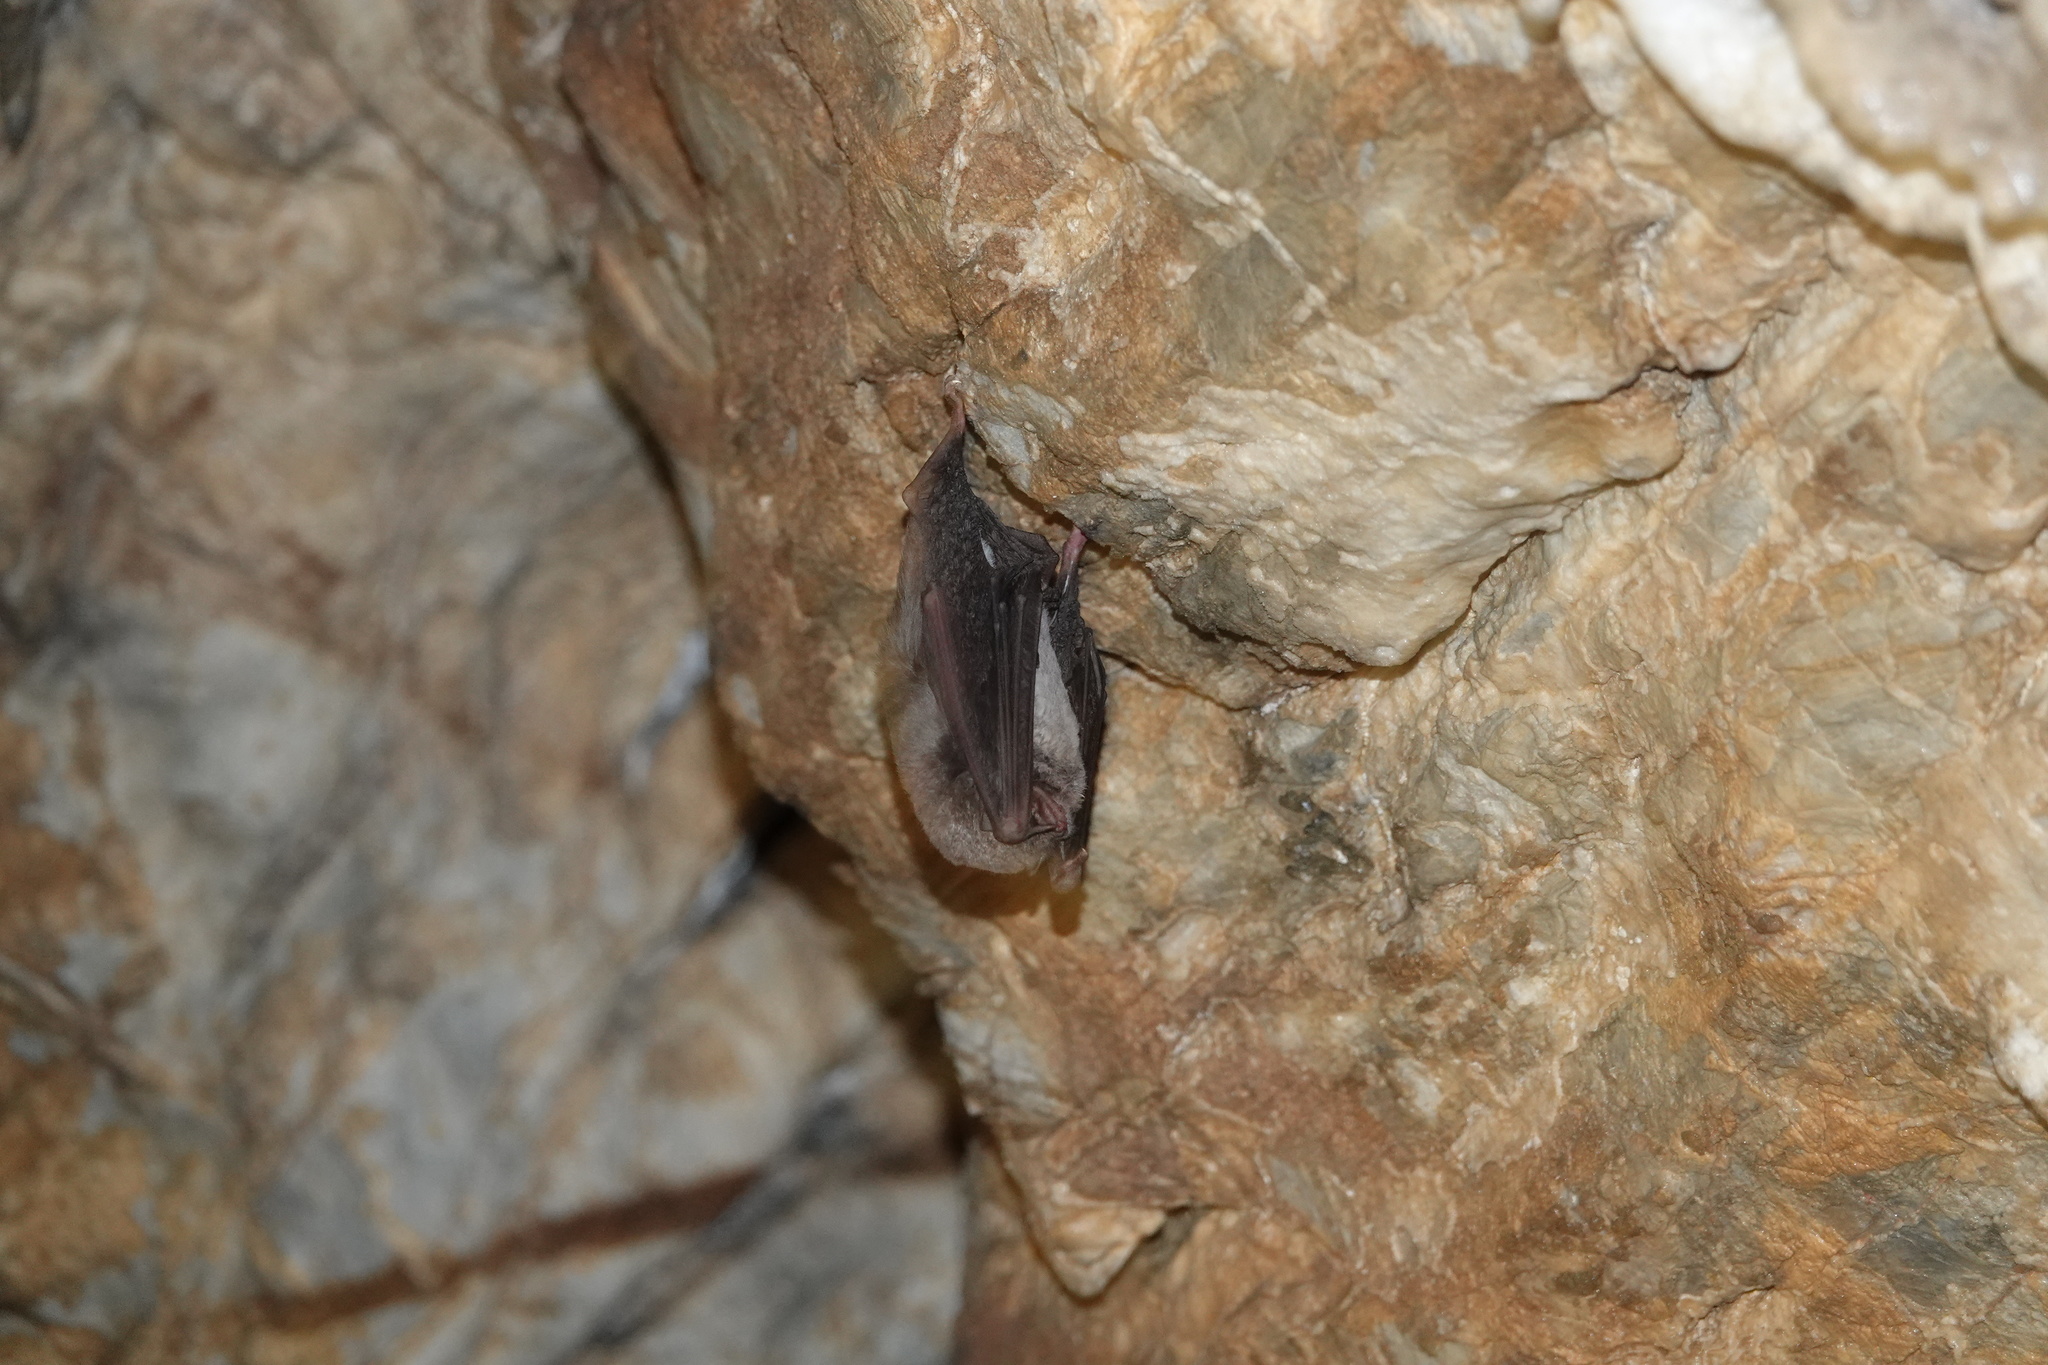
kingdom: Animalia
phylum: Chordata
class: Mammalia
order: Chiroptera
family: Miniopteridae
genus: Miniopterus
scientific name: Miniopterus schreibersii
